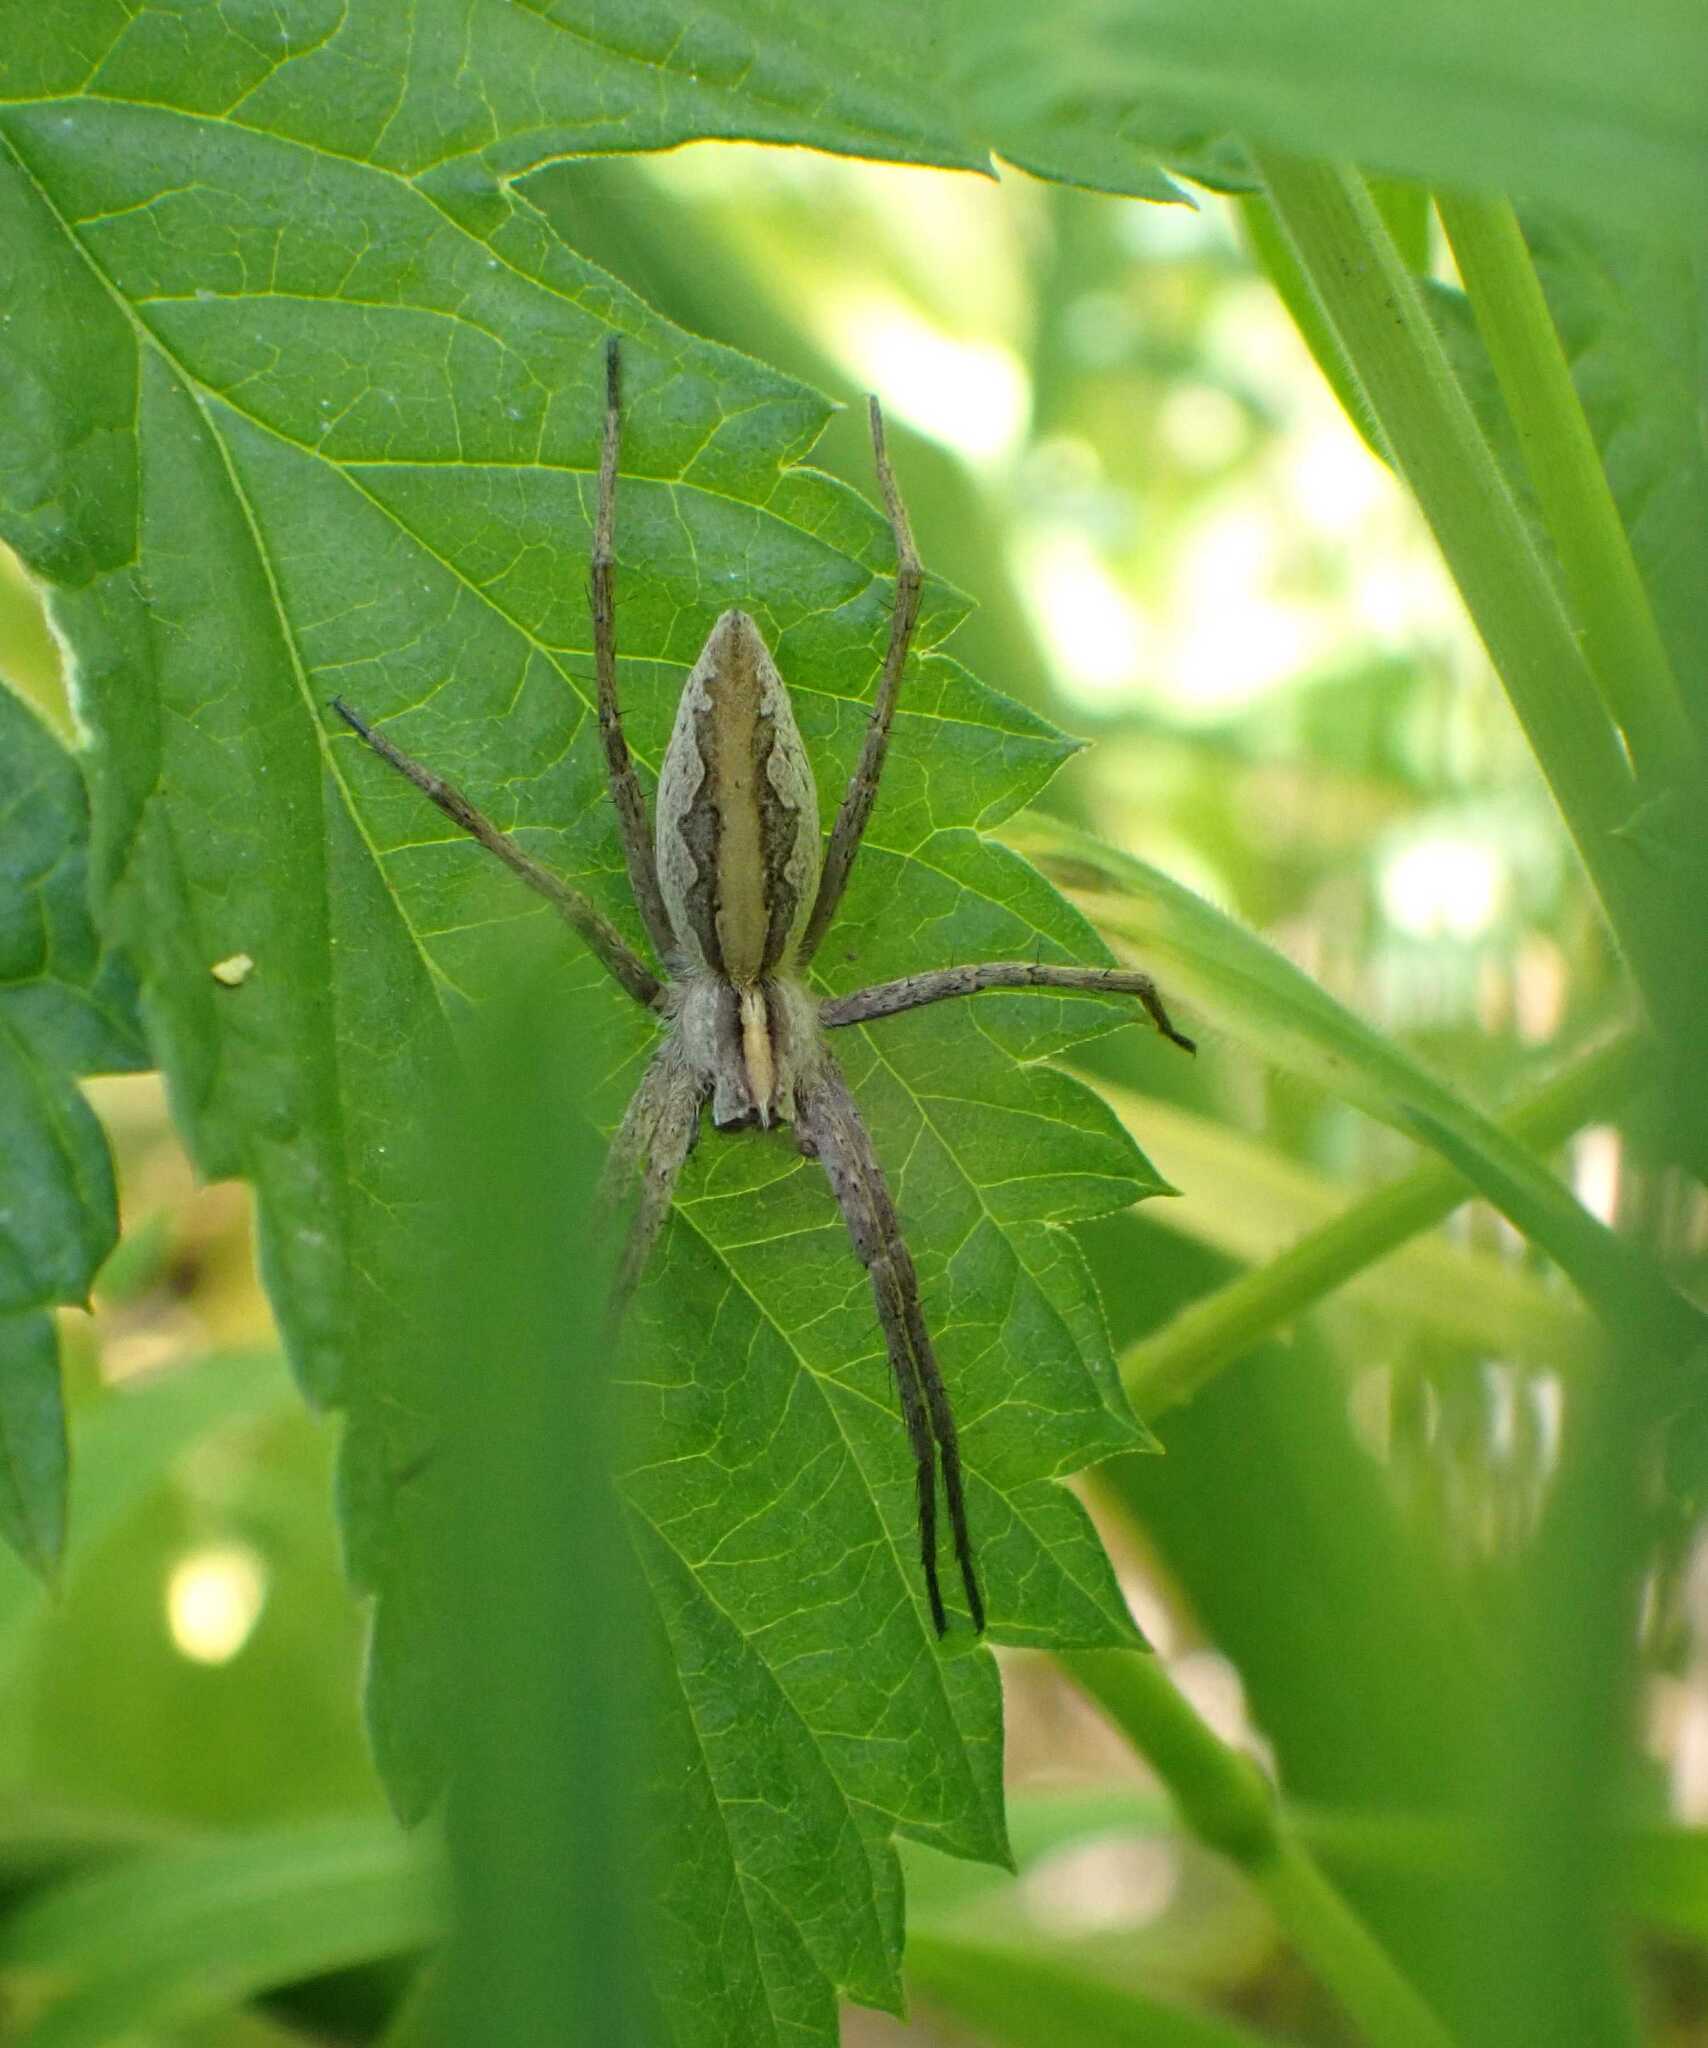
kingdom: Animalia
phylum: Arthropoda
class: Arachnida
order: Araneae
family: Pisauridae
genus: Pisaura
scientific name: Pisaura mirabilis
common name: Tent spider
